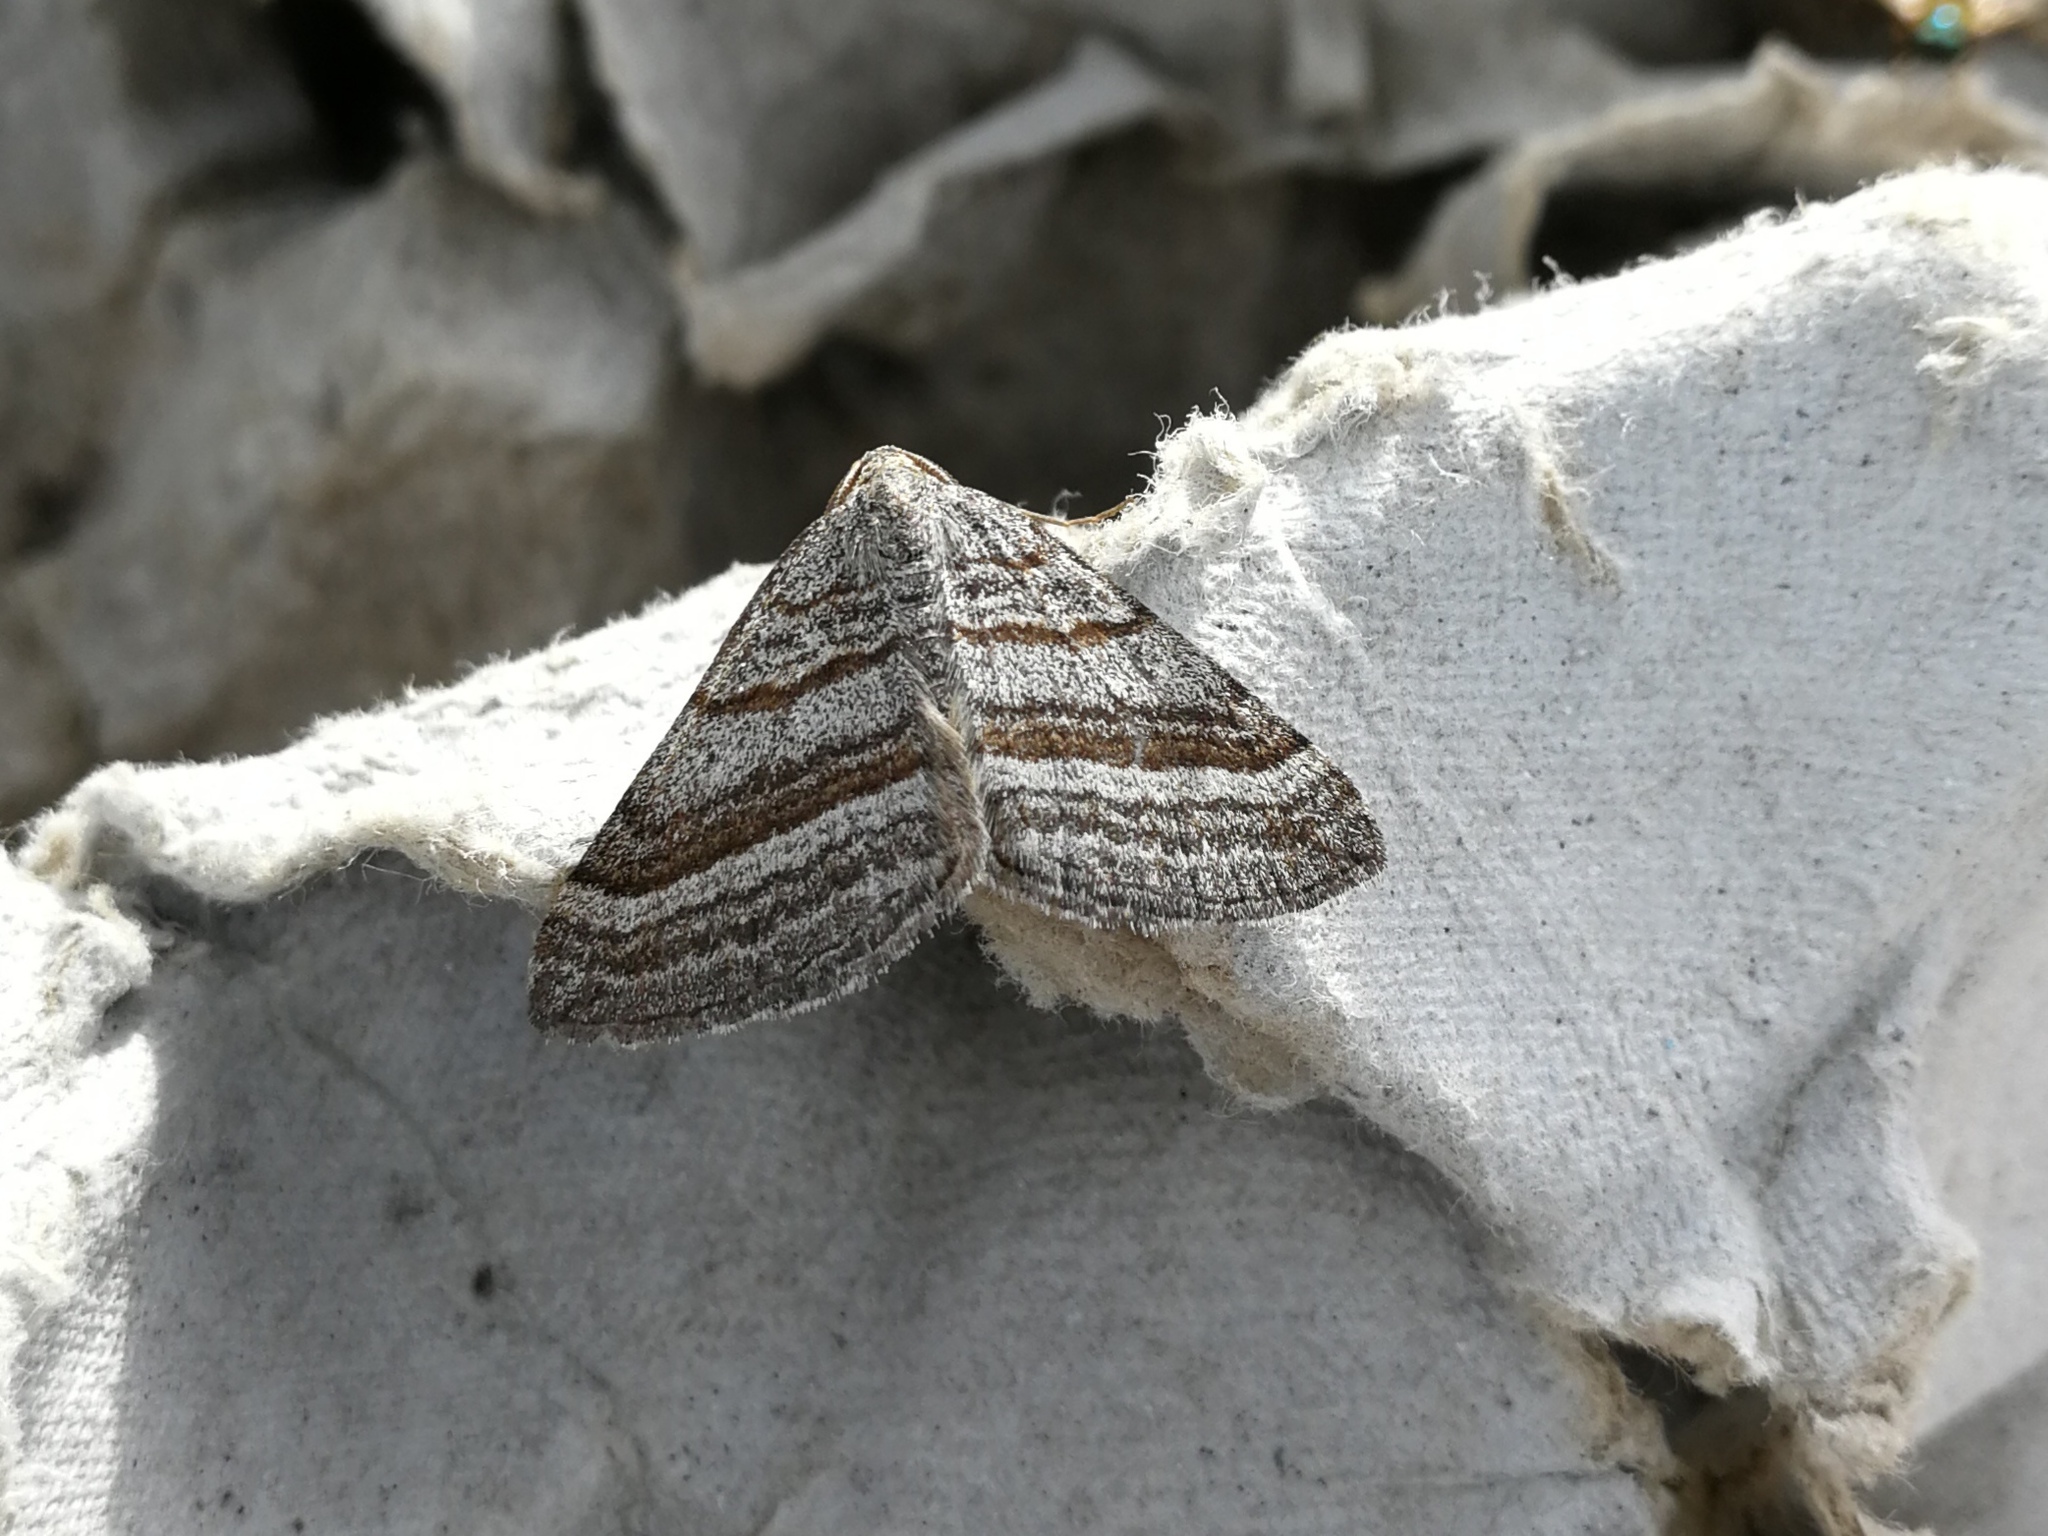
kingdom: Animalia
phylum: Arthropoda
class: Insecta
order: Lepidoptera
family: Geometridae
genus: Scotopteryx
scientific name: Scotopteryx coarctaria
